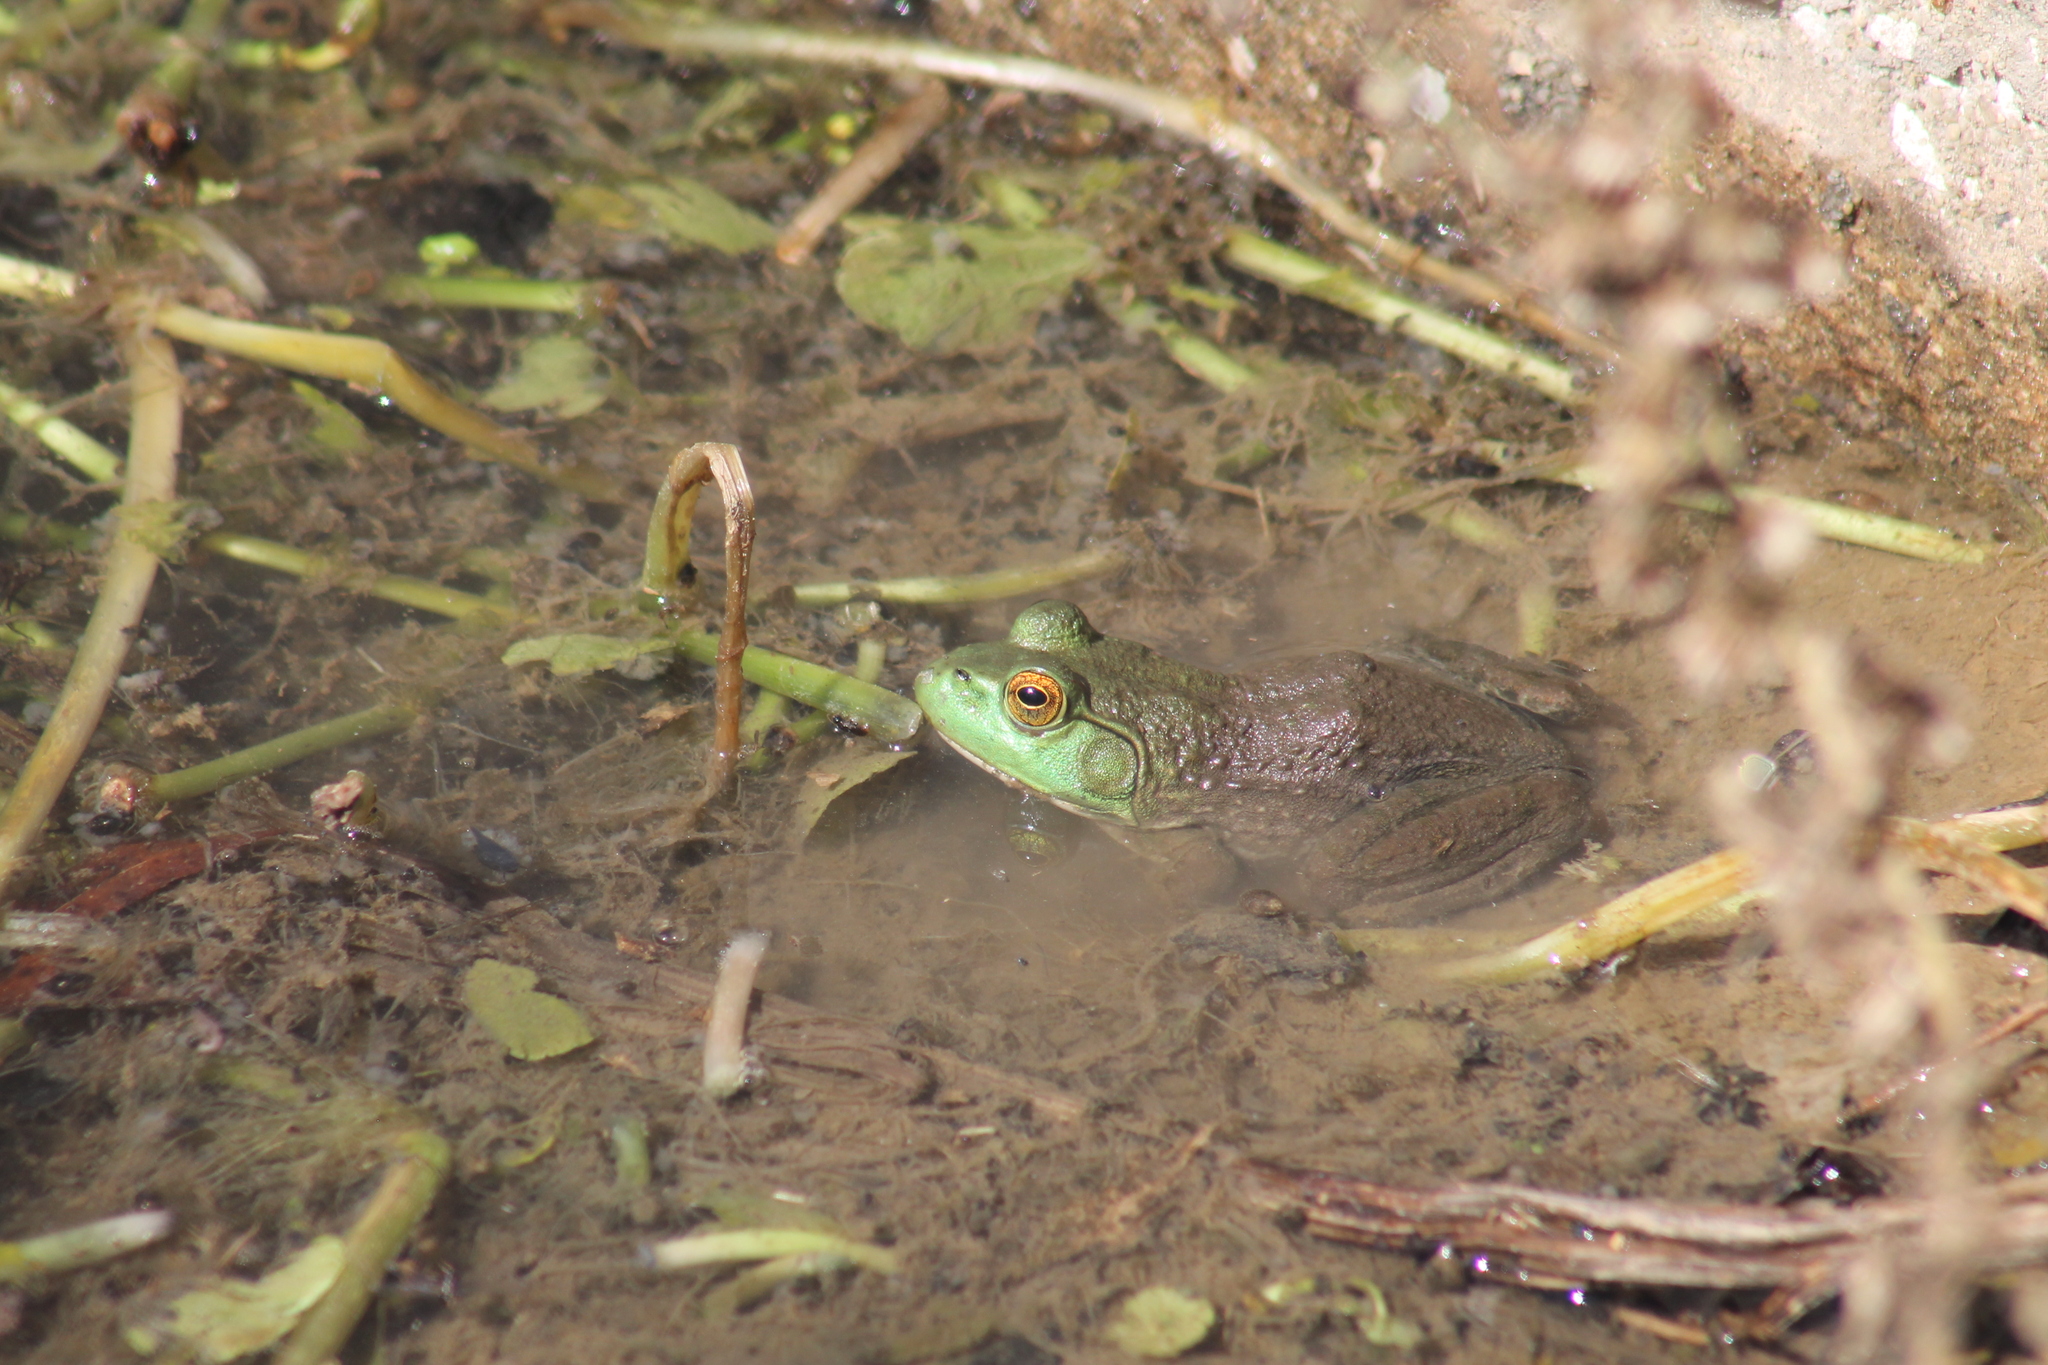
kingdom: Animalia
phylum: Chordata
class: Amphibia
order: Anura
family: Ranidae
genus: Lithobates
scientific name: Lithobates catesbeianus
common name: American bullfrog
